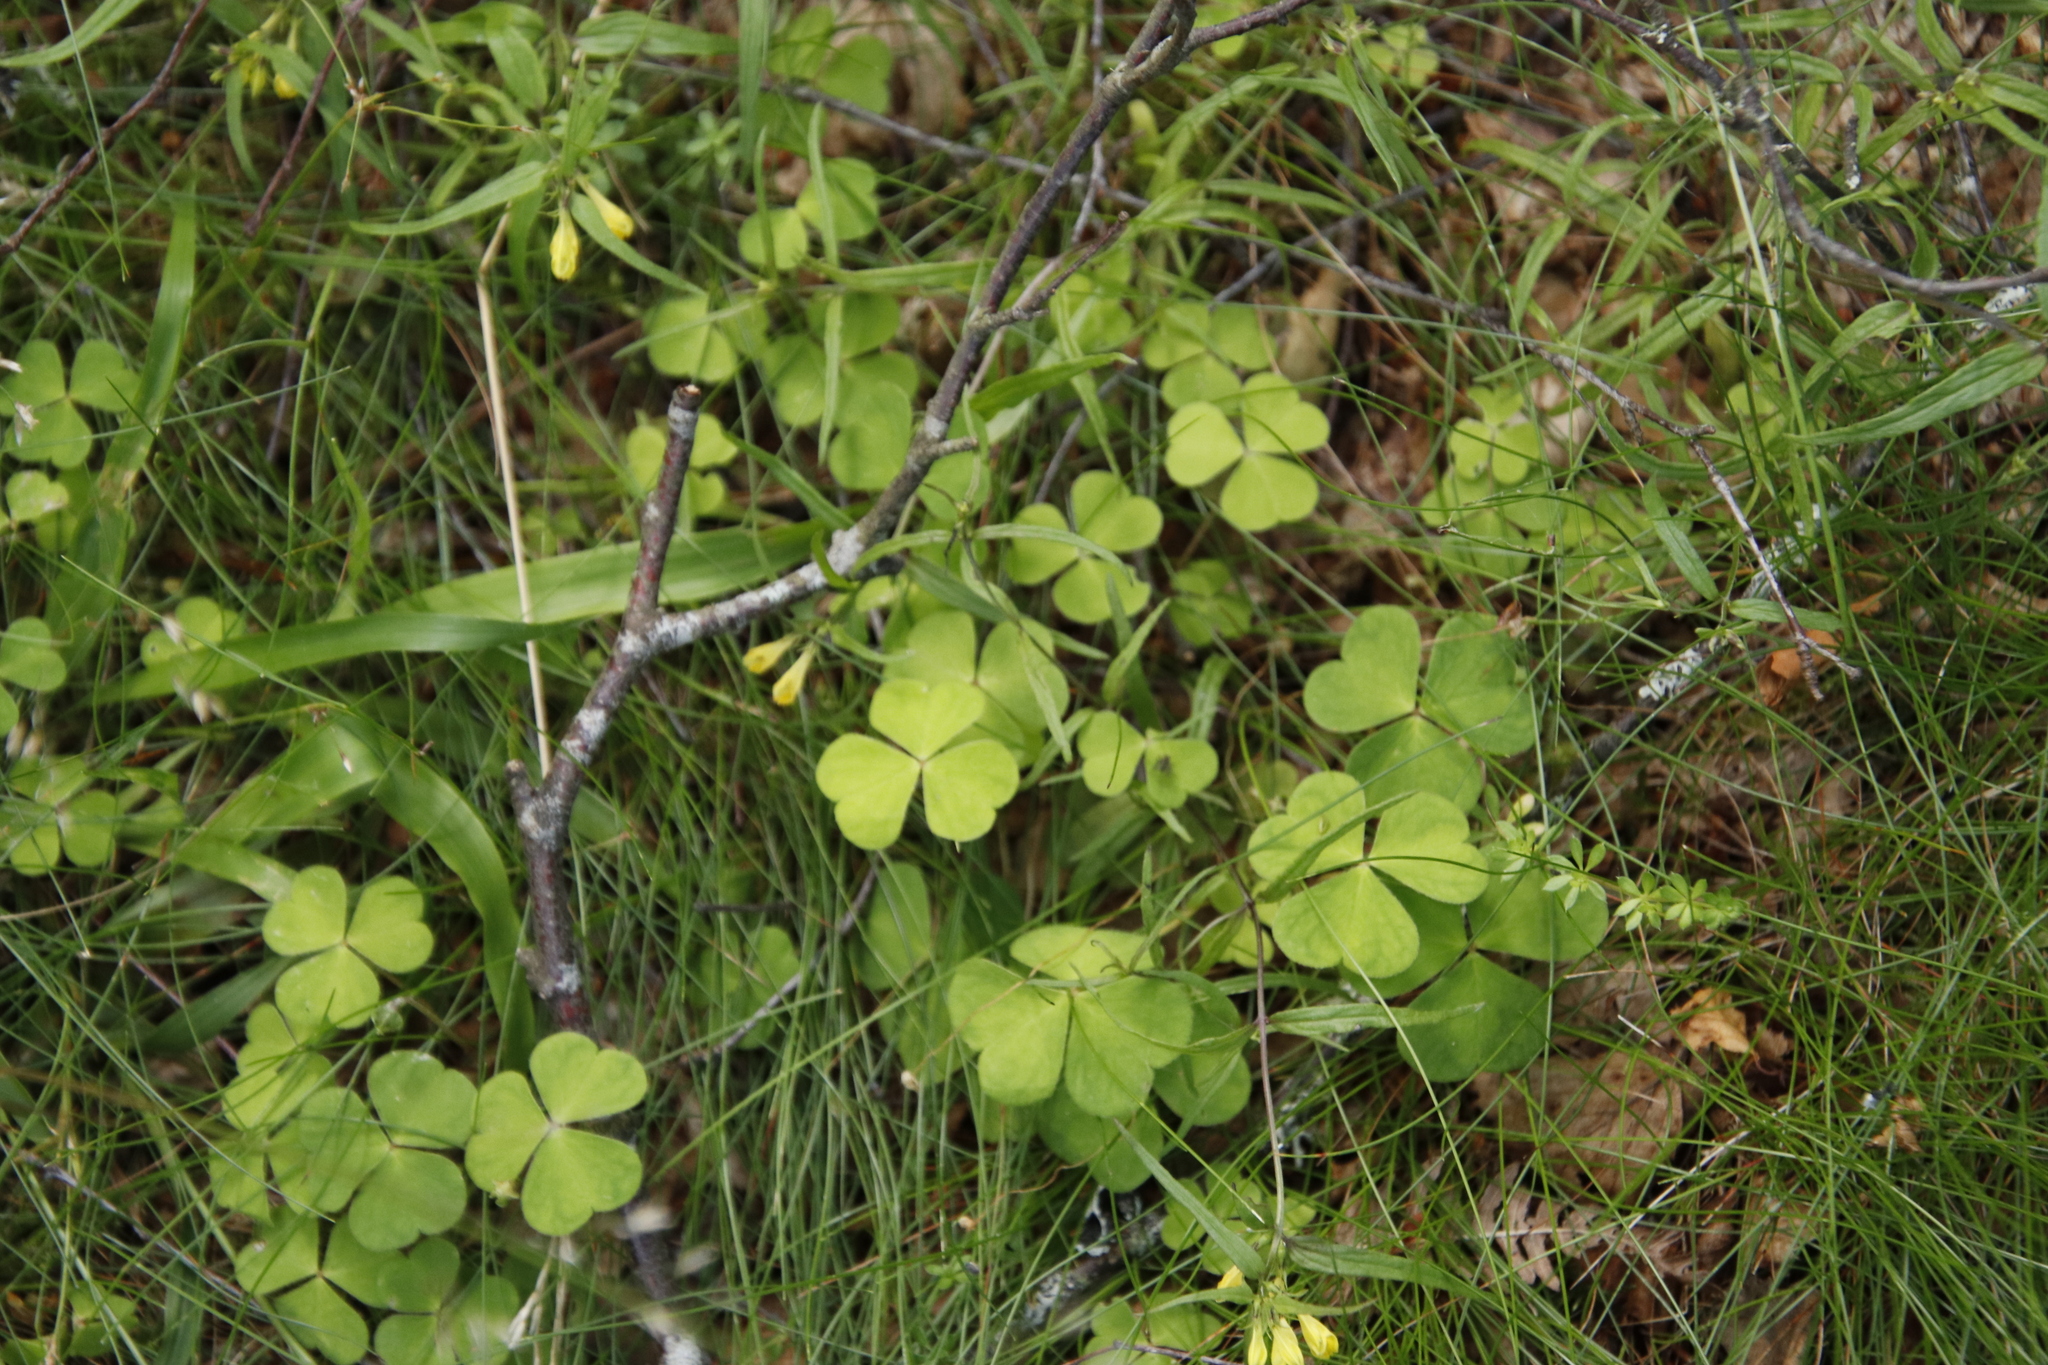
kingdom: Plantae
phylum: Tracheophyta
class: Magnoliopsida
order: Oxalidales
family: Oxalidaceae
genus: Oxalis
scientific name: Oxalis acetosella
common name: Wood-sorrel
